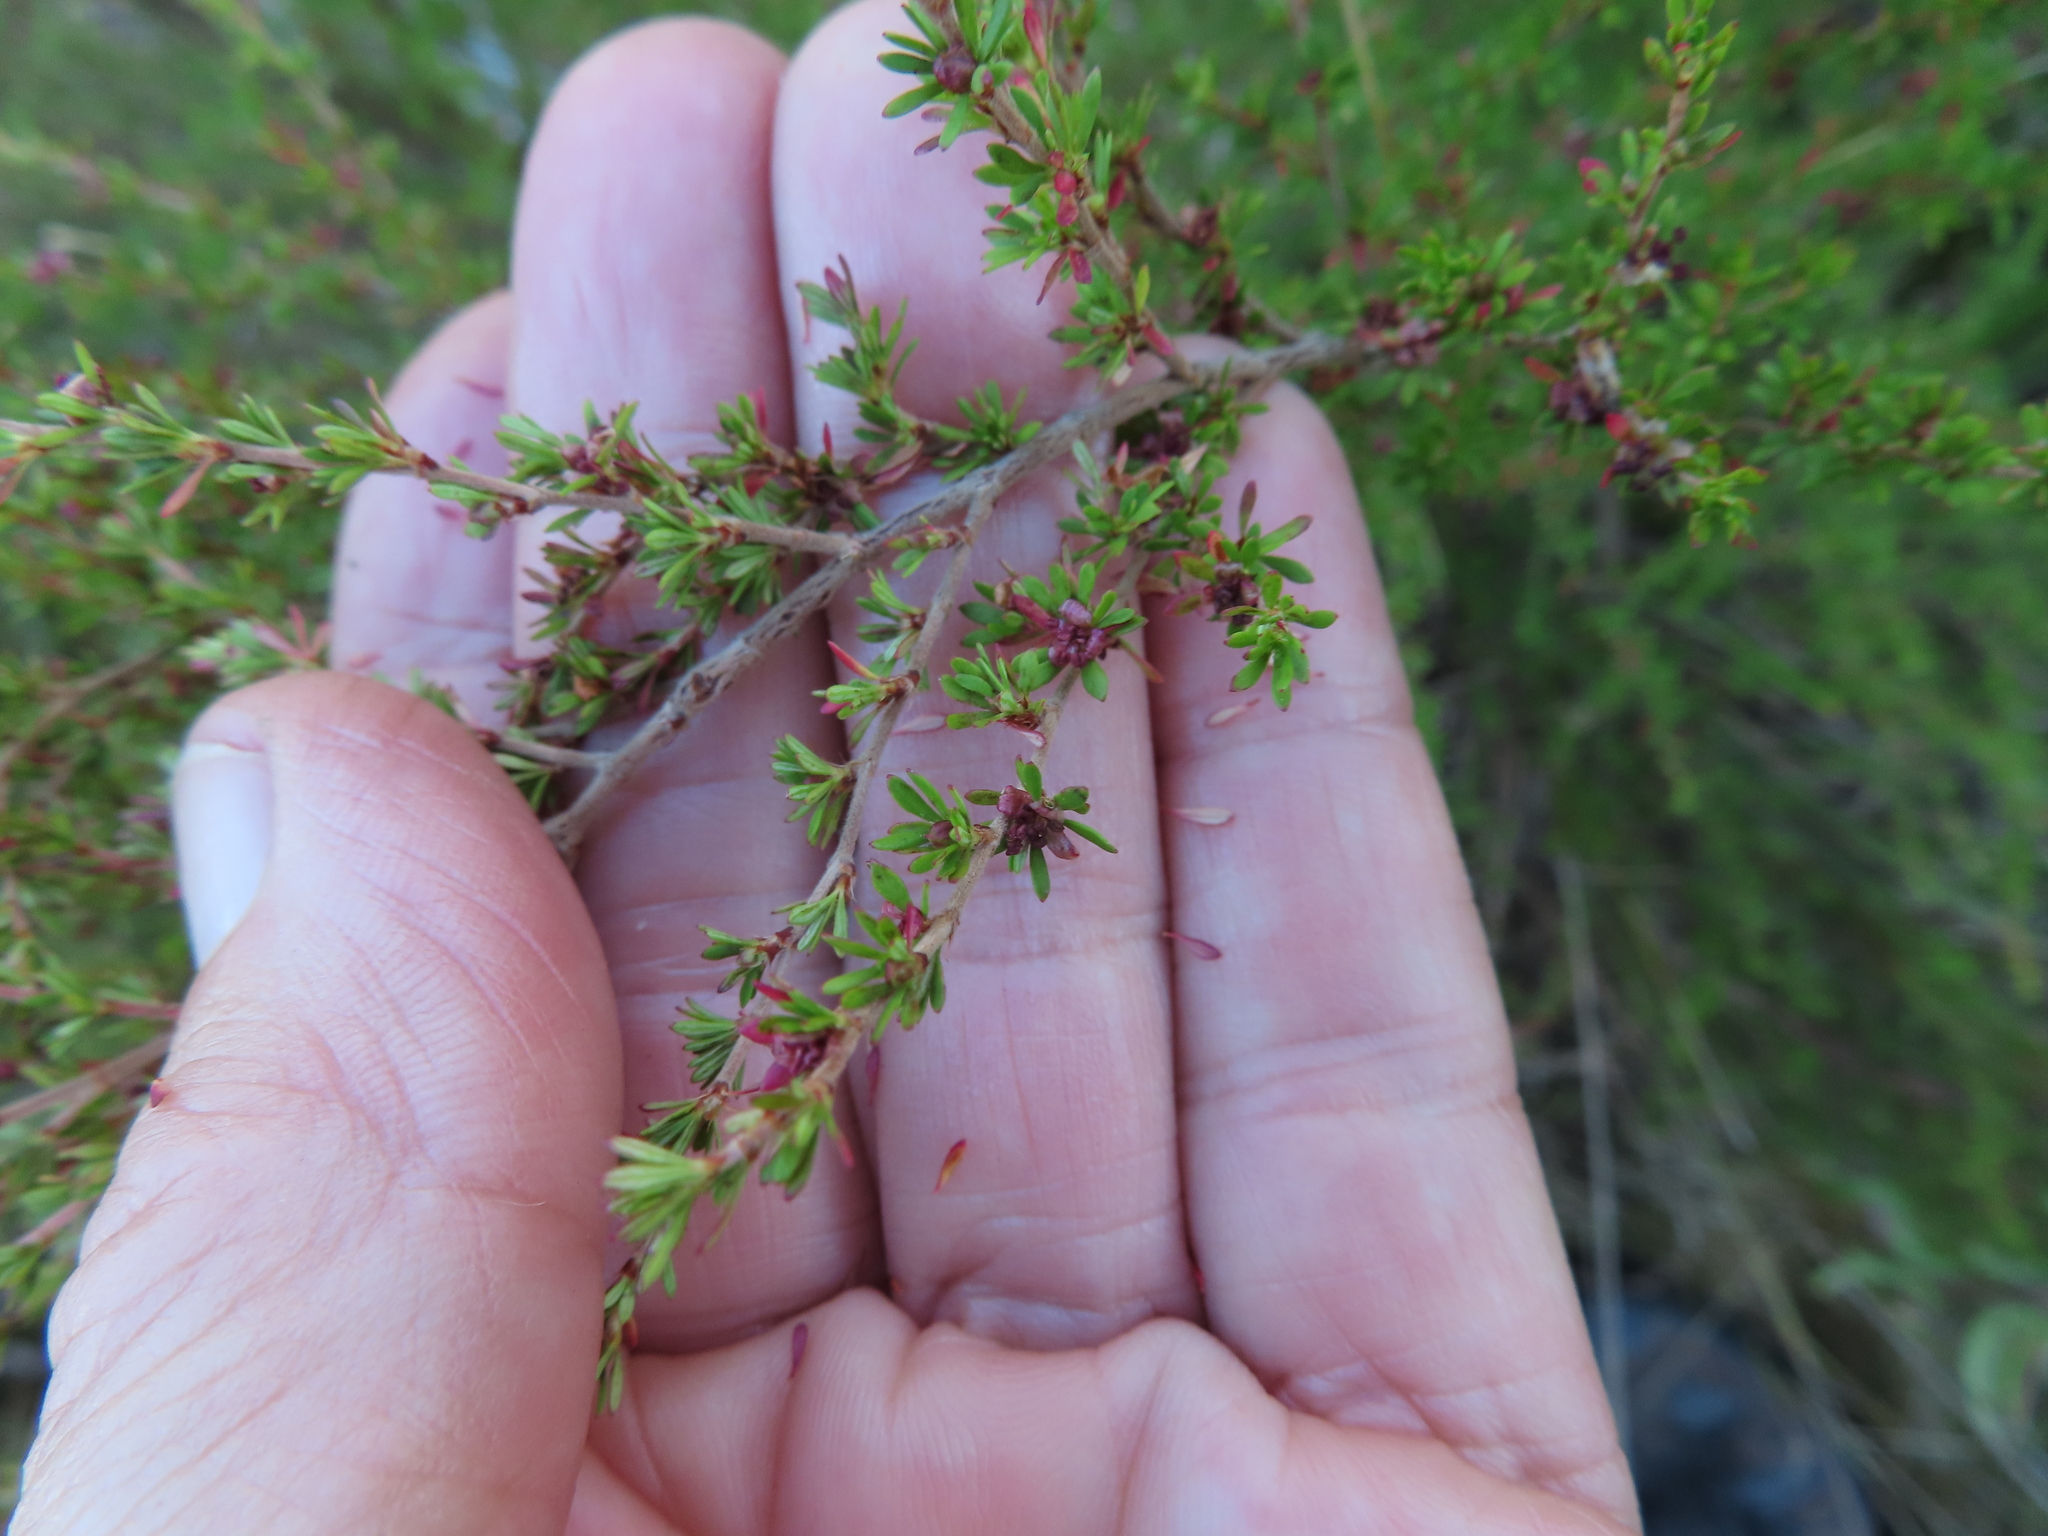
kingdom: Plantae
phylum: Tracheophyta
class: Magnoliopsida
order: Rosales
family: Rosaceae
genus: Cliffortia
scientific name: Cliffortia serpyllifolia
